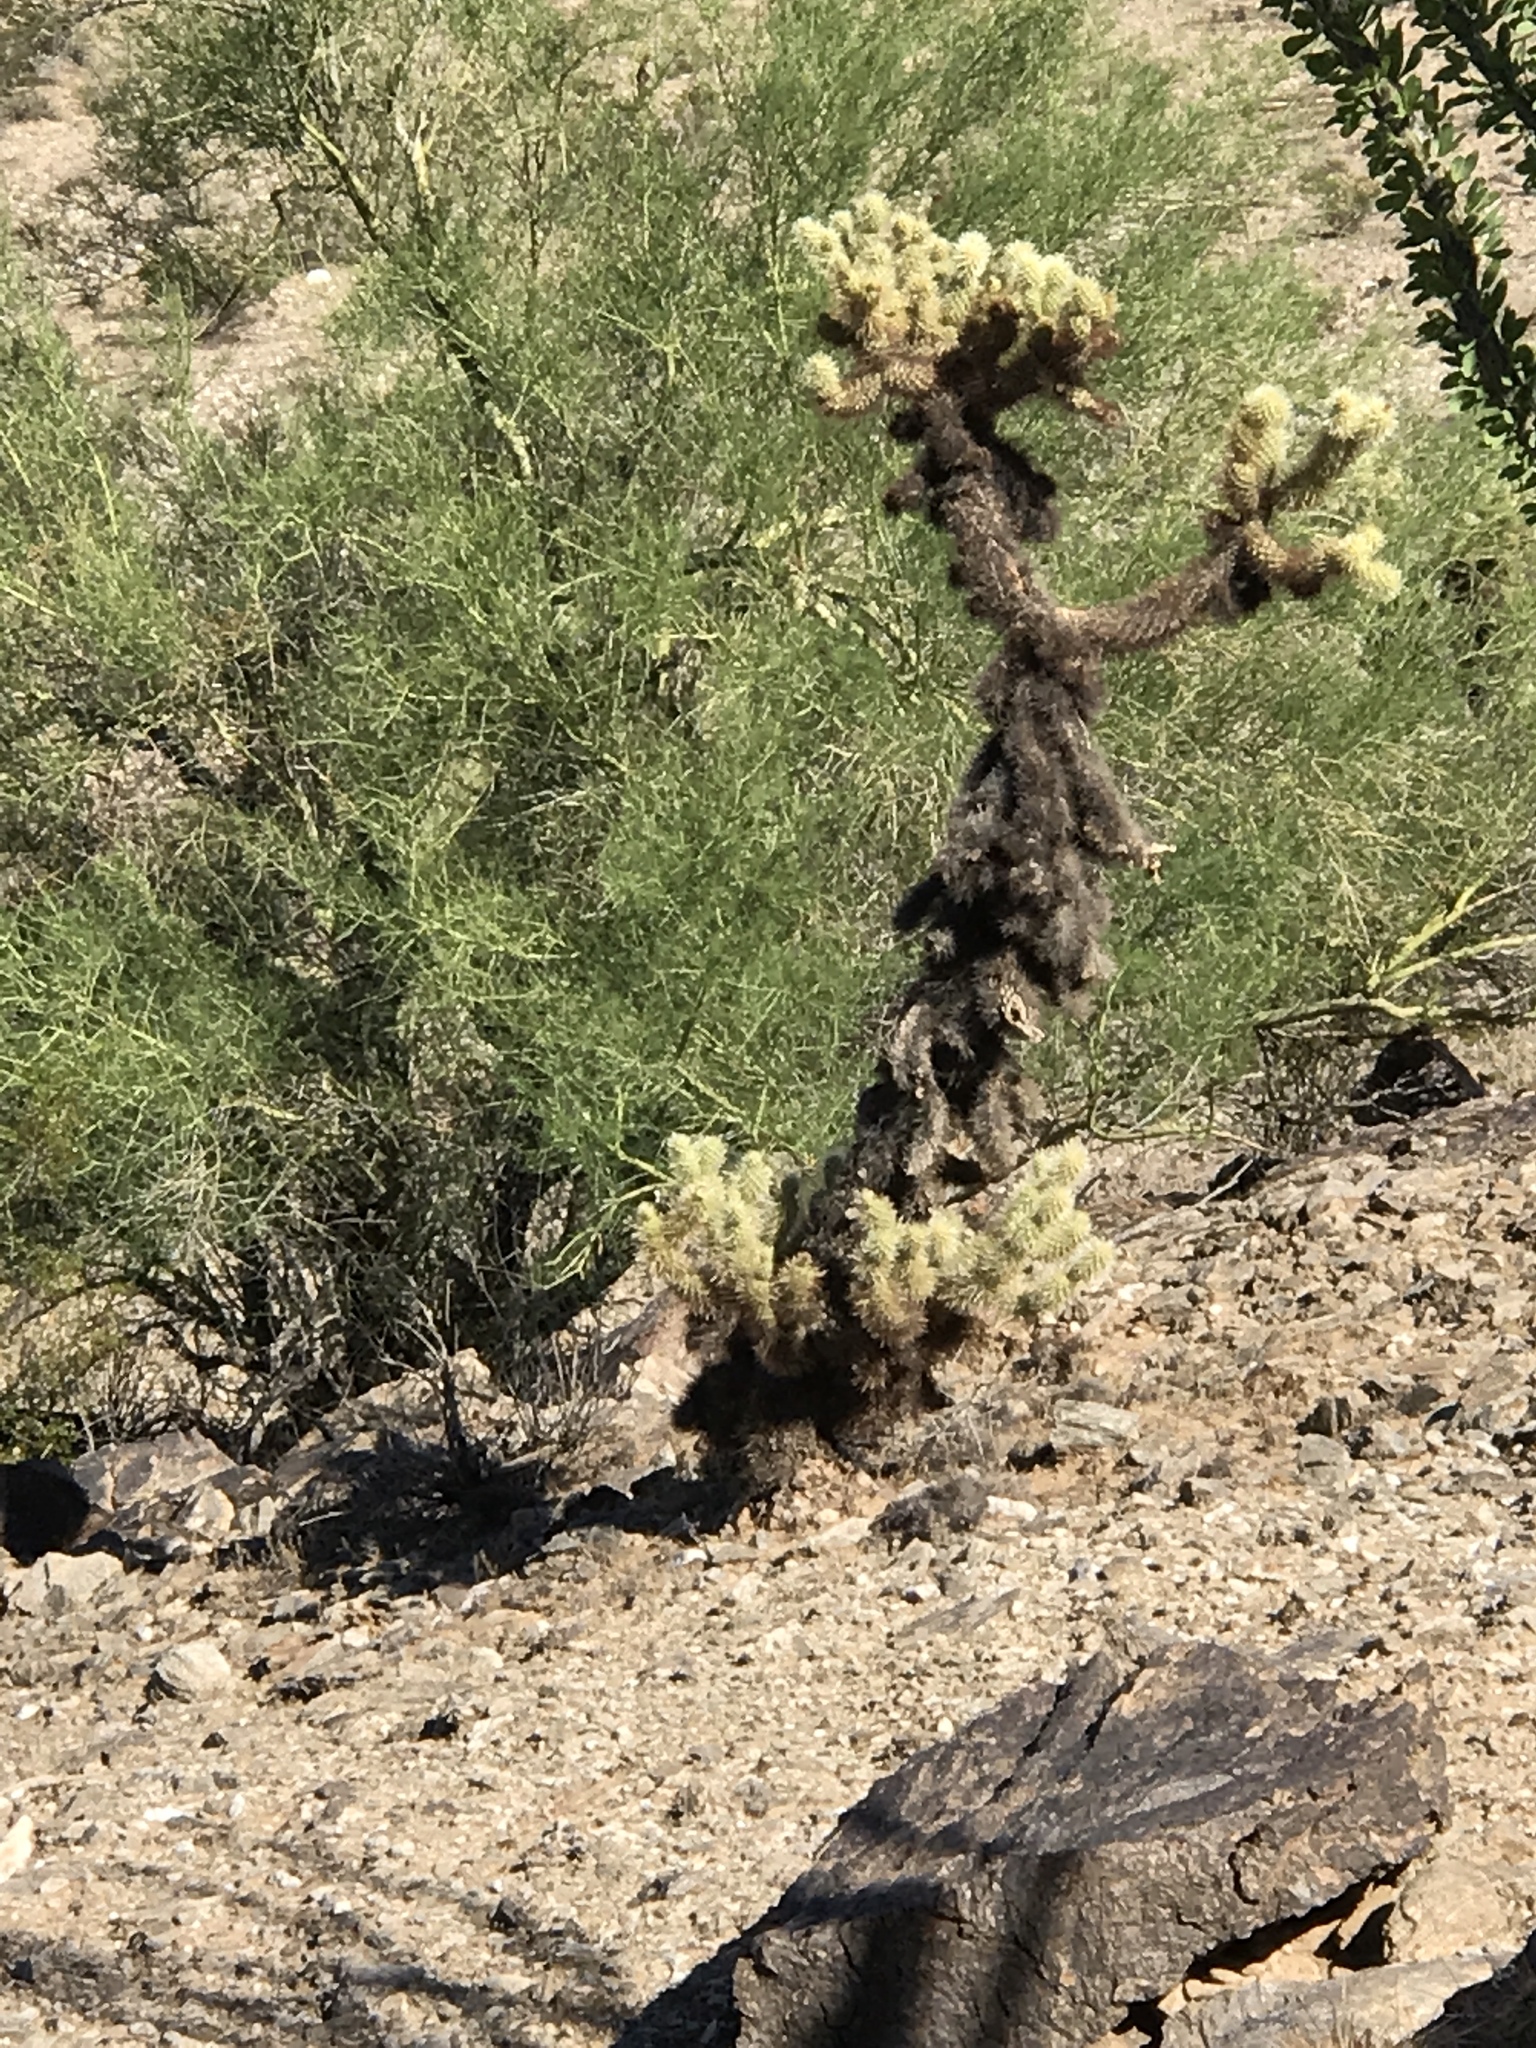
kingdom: Plantae
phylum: Tracheophyta
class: Magnoliopsida
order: Caryophyllales
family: Cactaceae
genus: Cylindropuntia
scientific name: Cylindropuntia fosbergii
